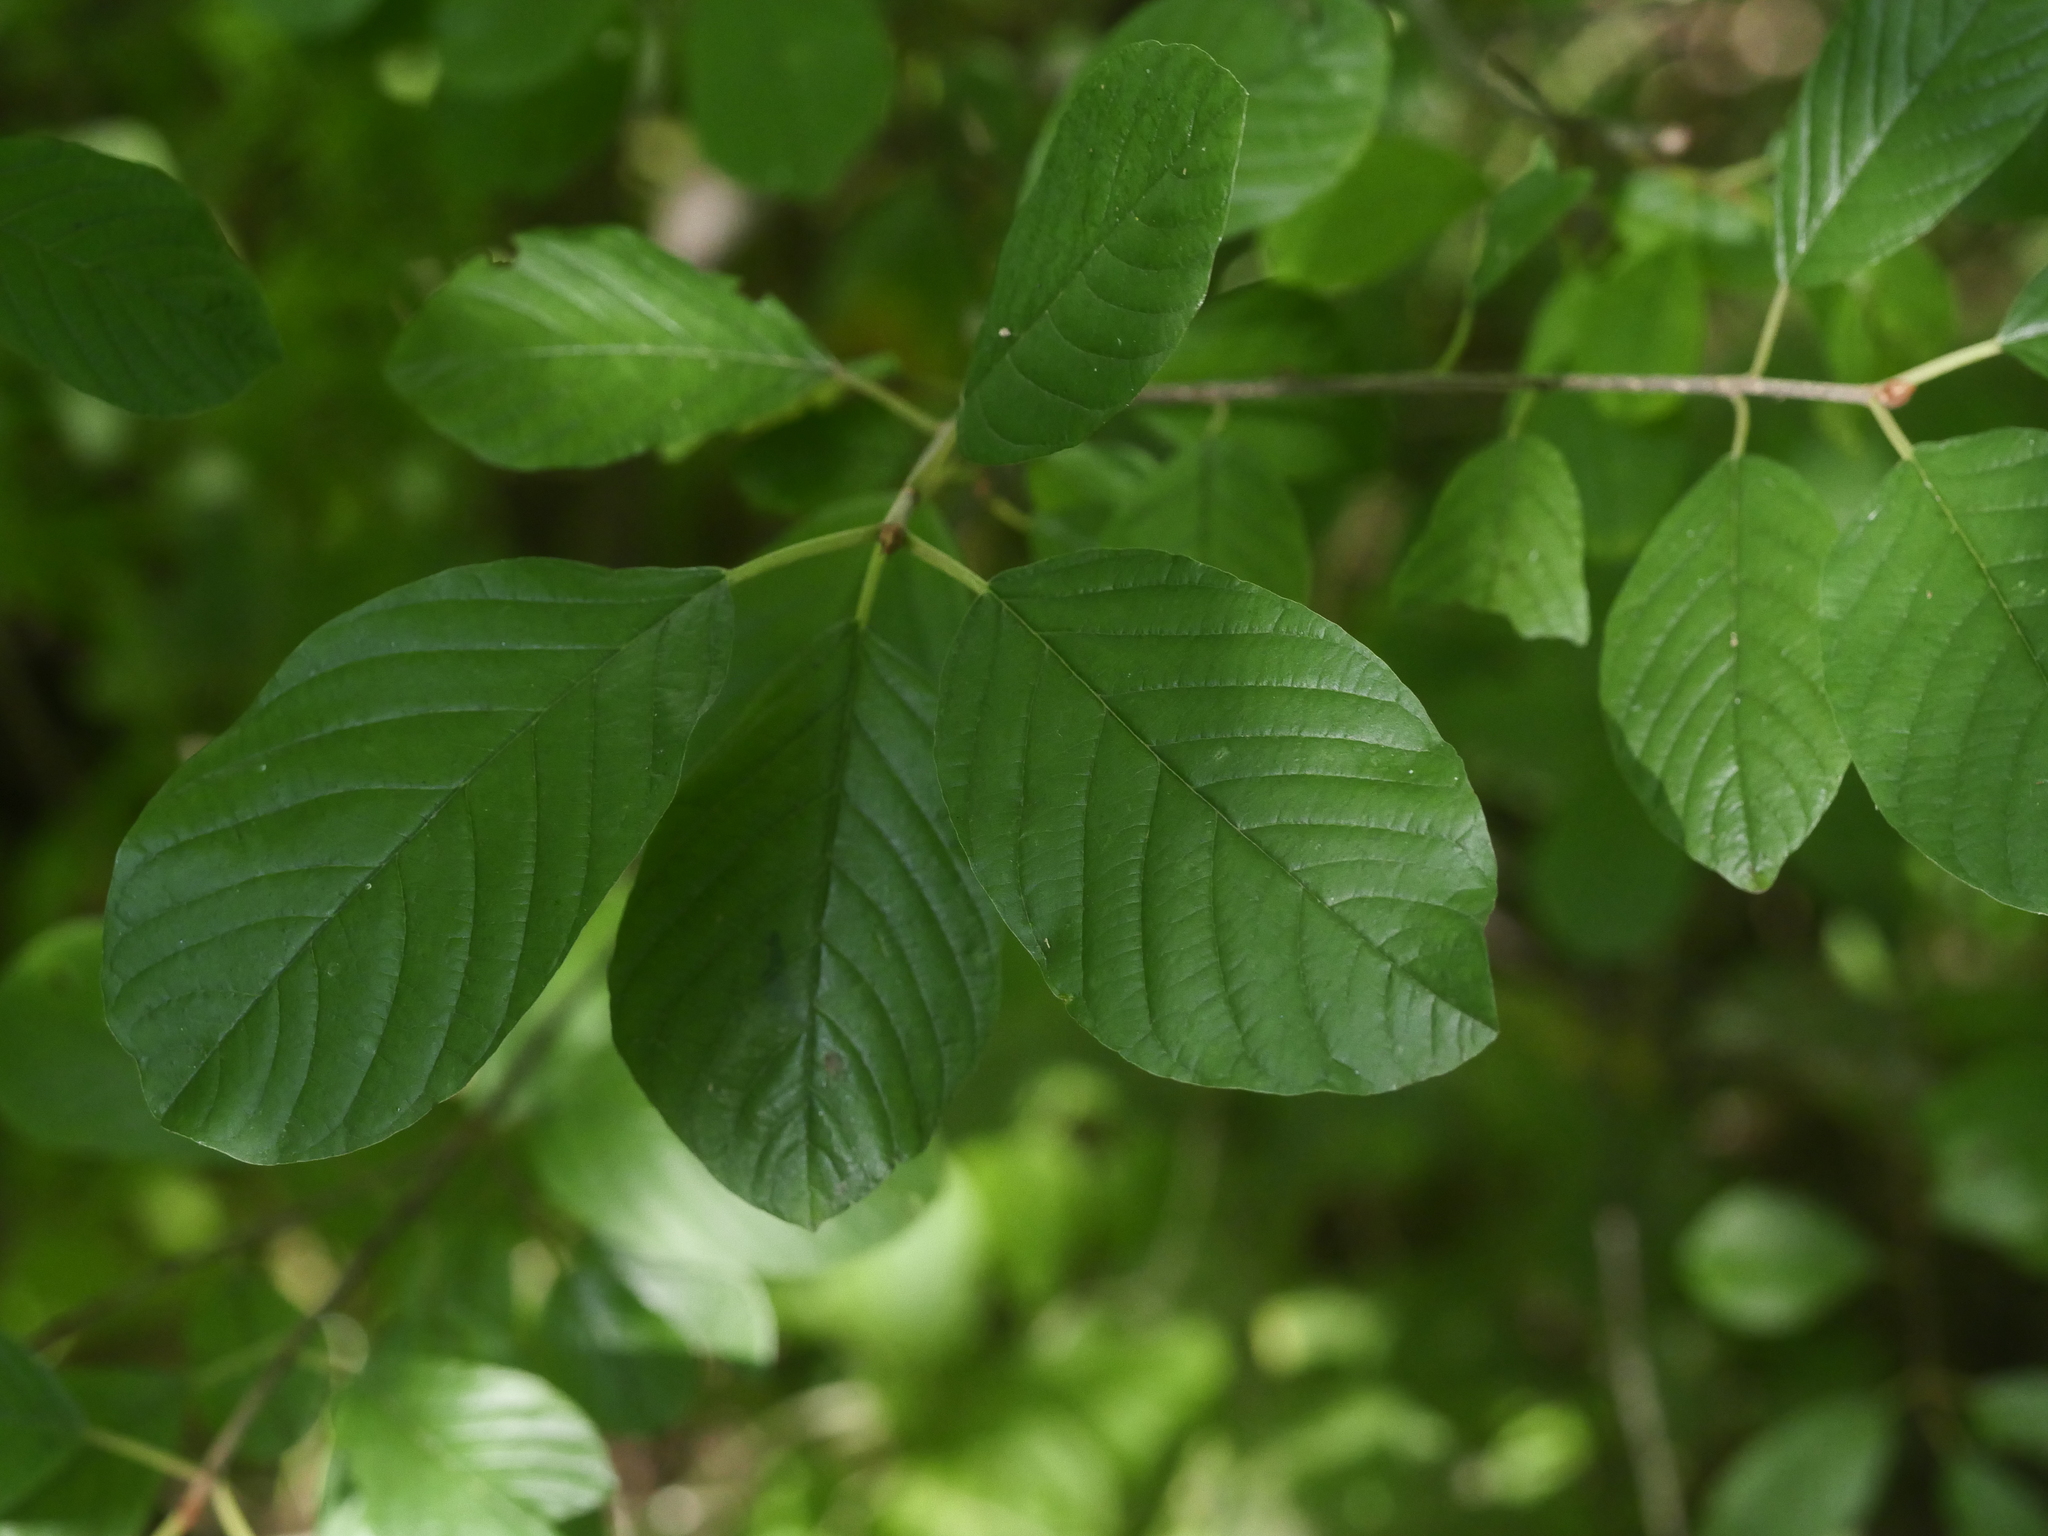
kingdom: Plantae
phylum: Tracheophyta
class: Magnoliopsida
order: Rosales
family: Rhamnaceae
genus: Frangula
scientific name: Frangula alnus
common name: Alder buckthorn
